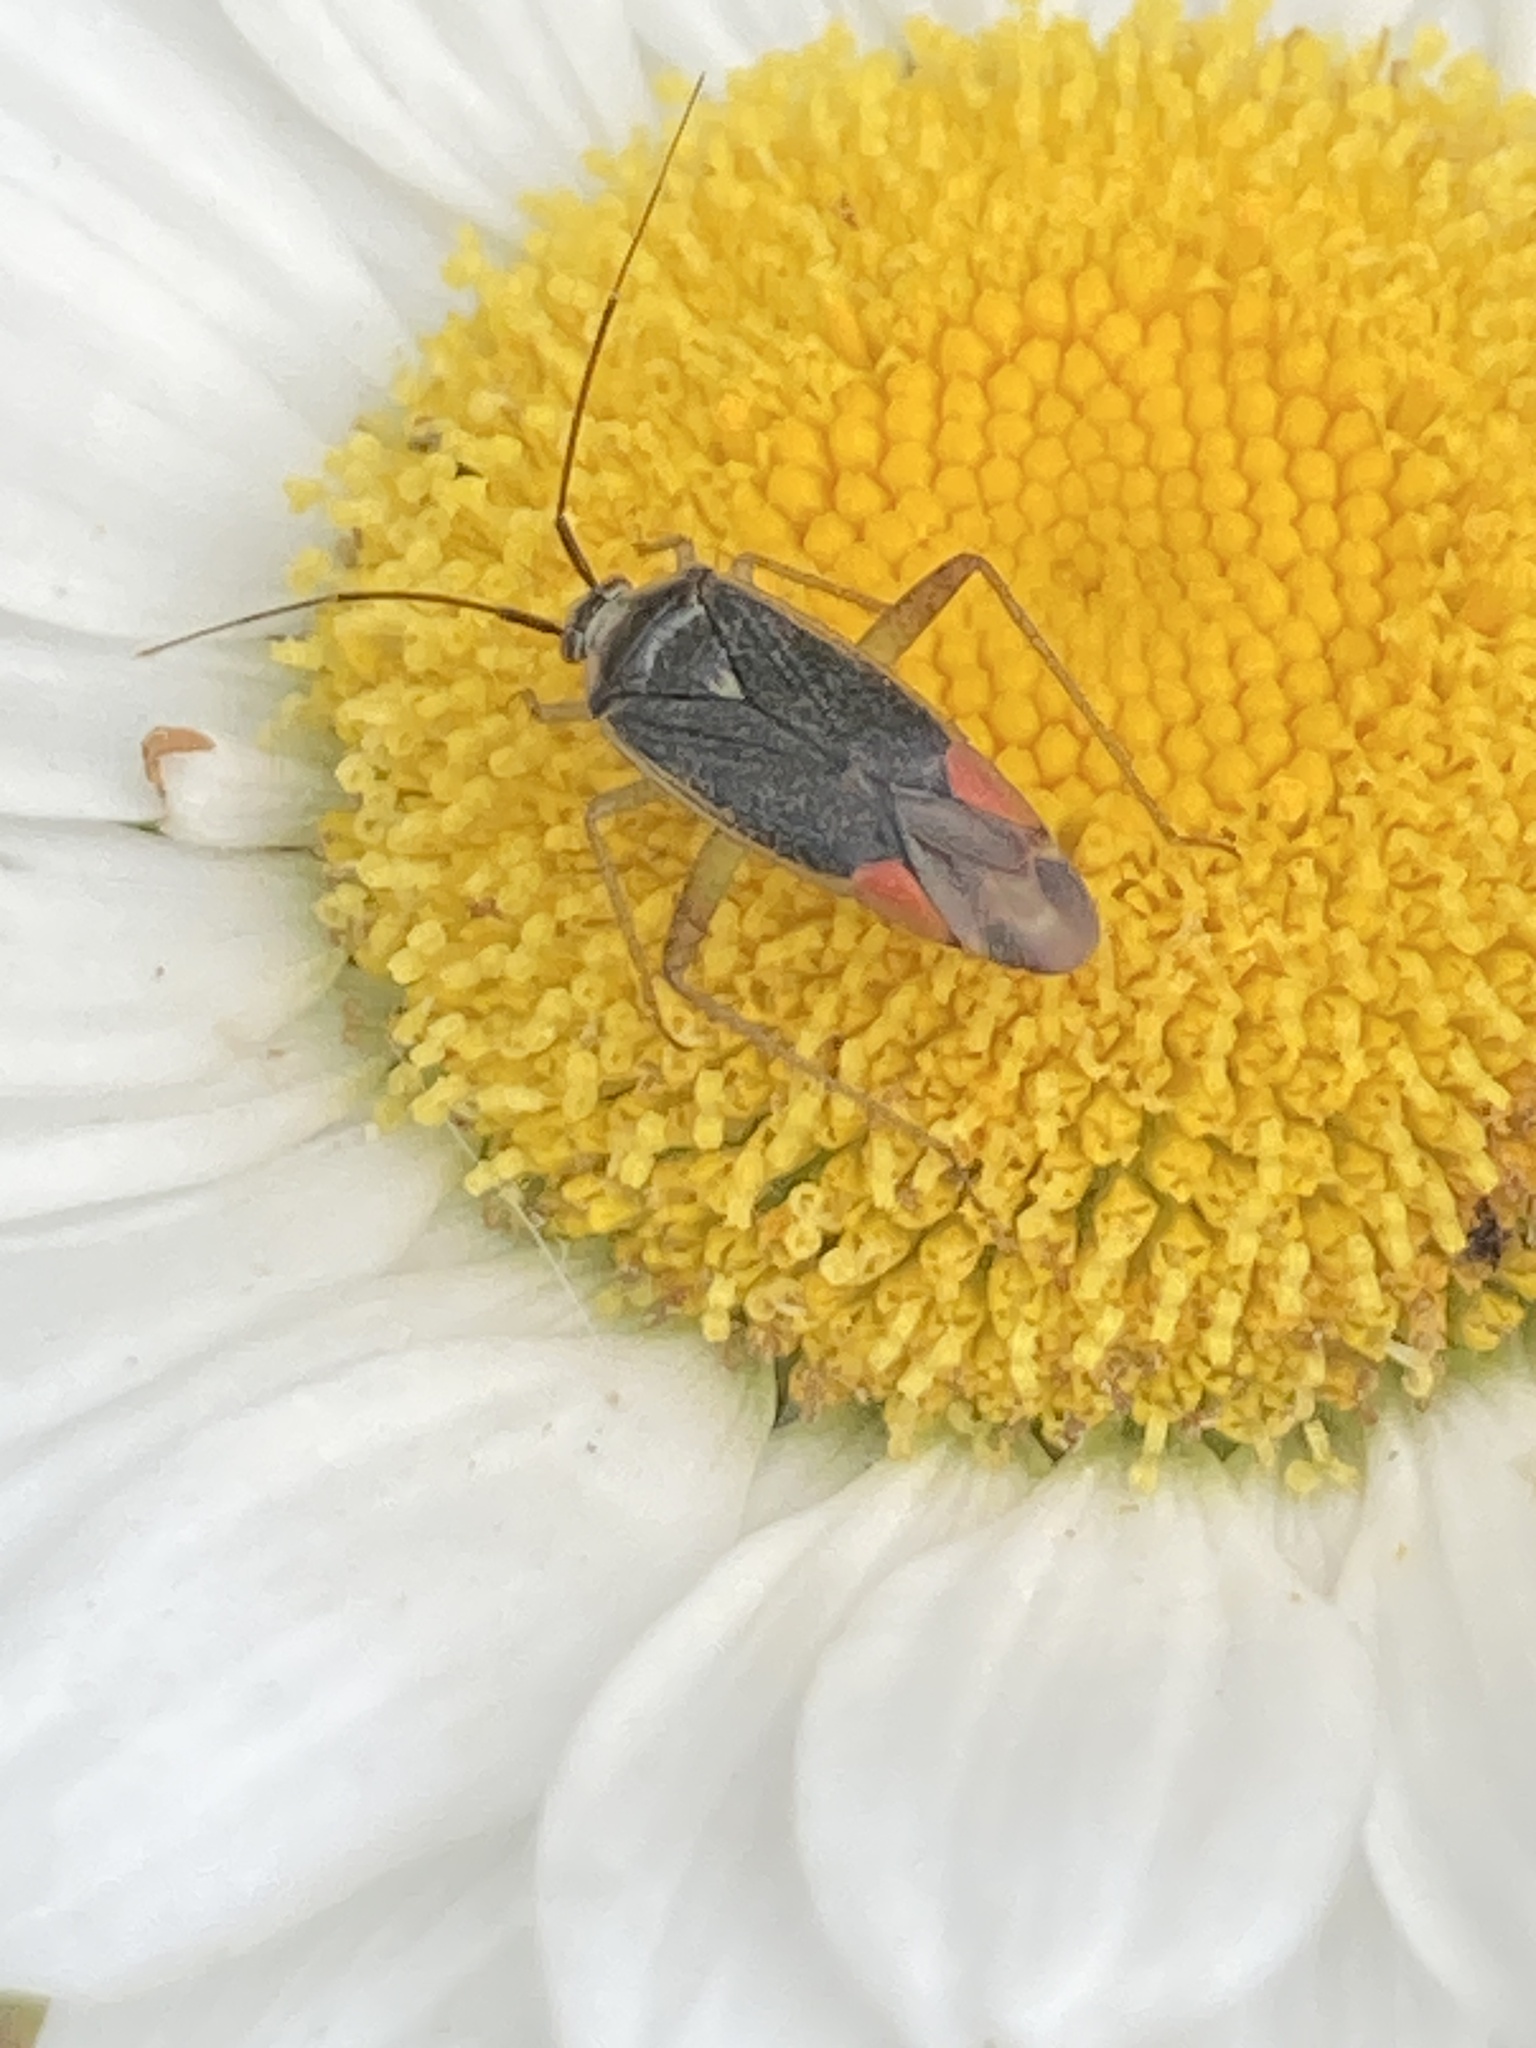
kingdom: Animalia
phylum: Arthropoda
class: Insecta
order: Hemiptera
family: Miridae
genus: Closterotomus
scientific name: Closterotomus trivialis
